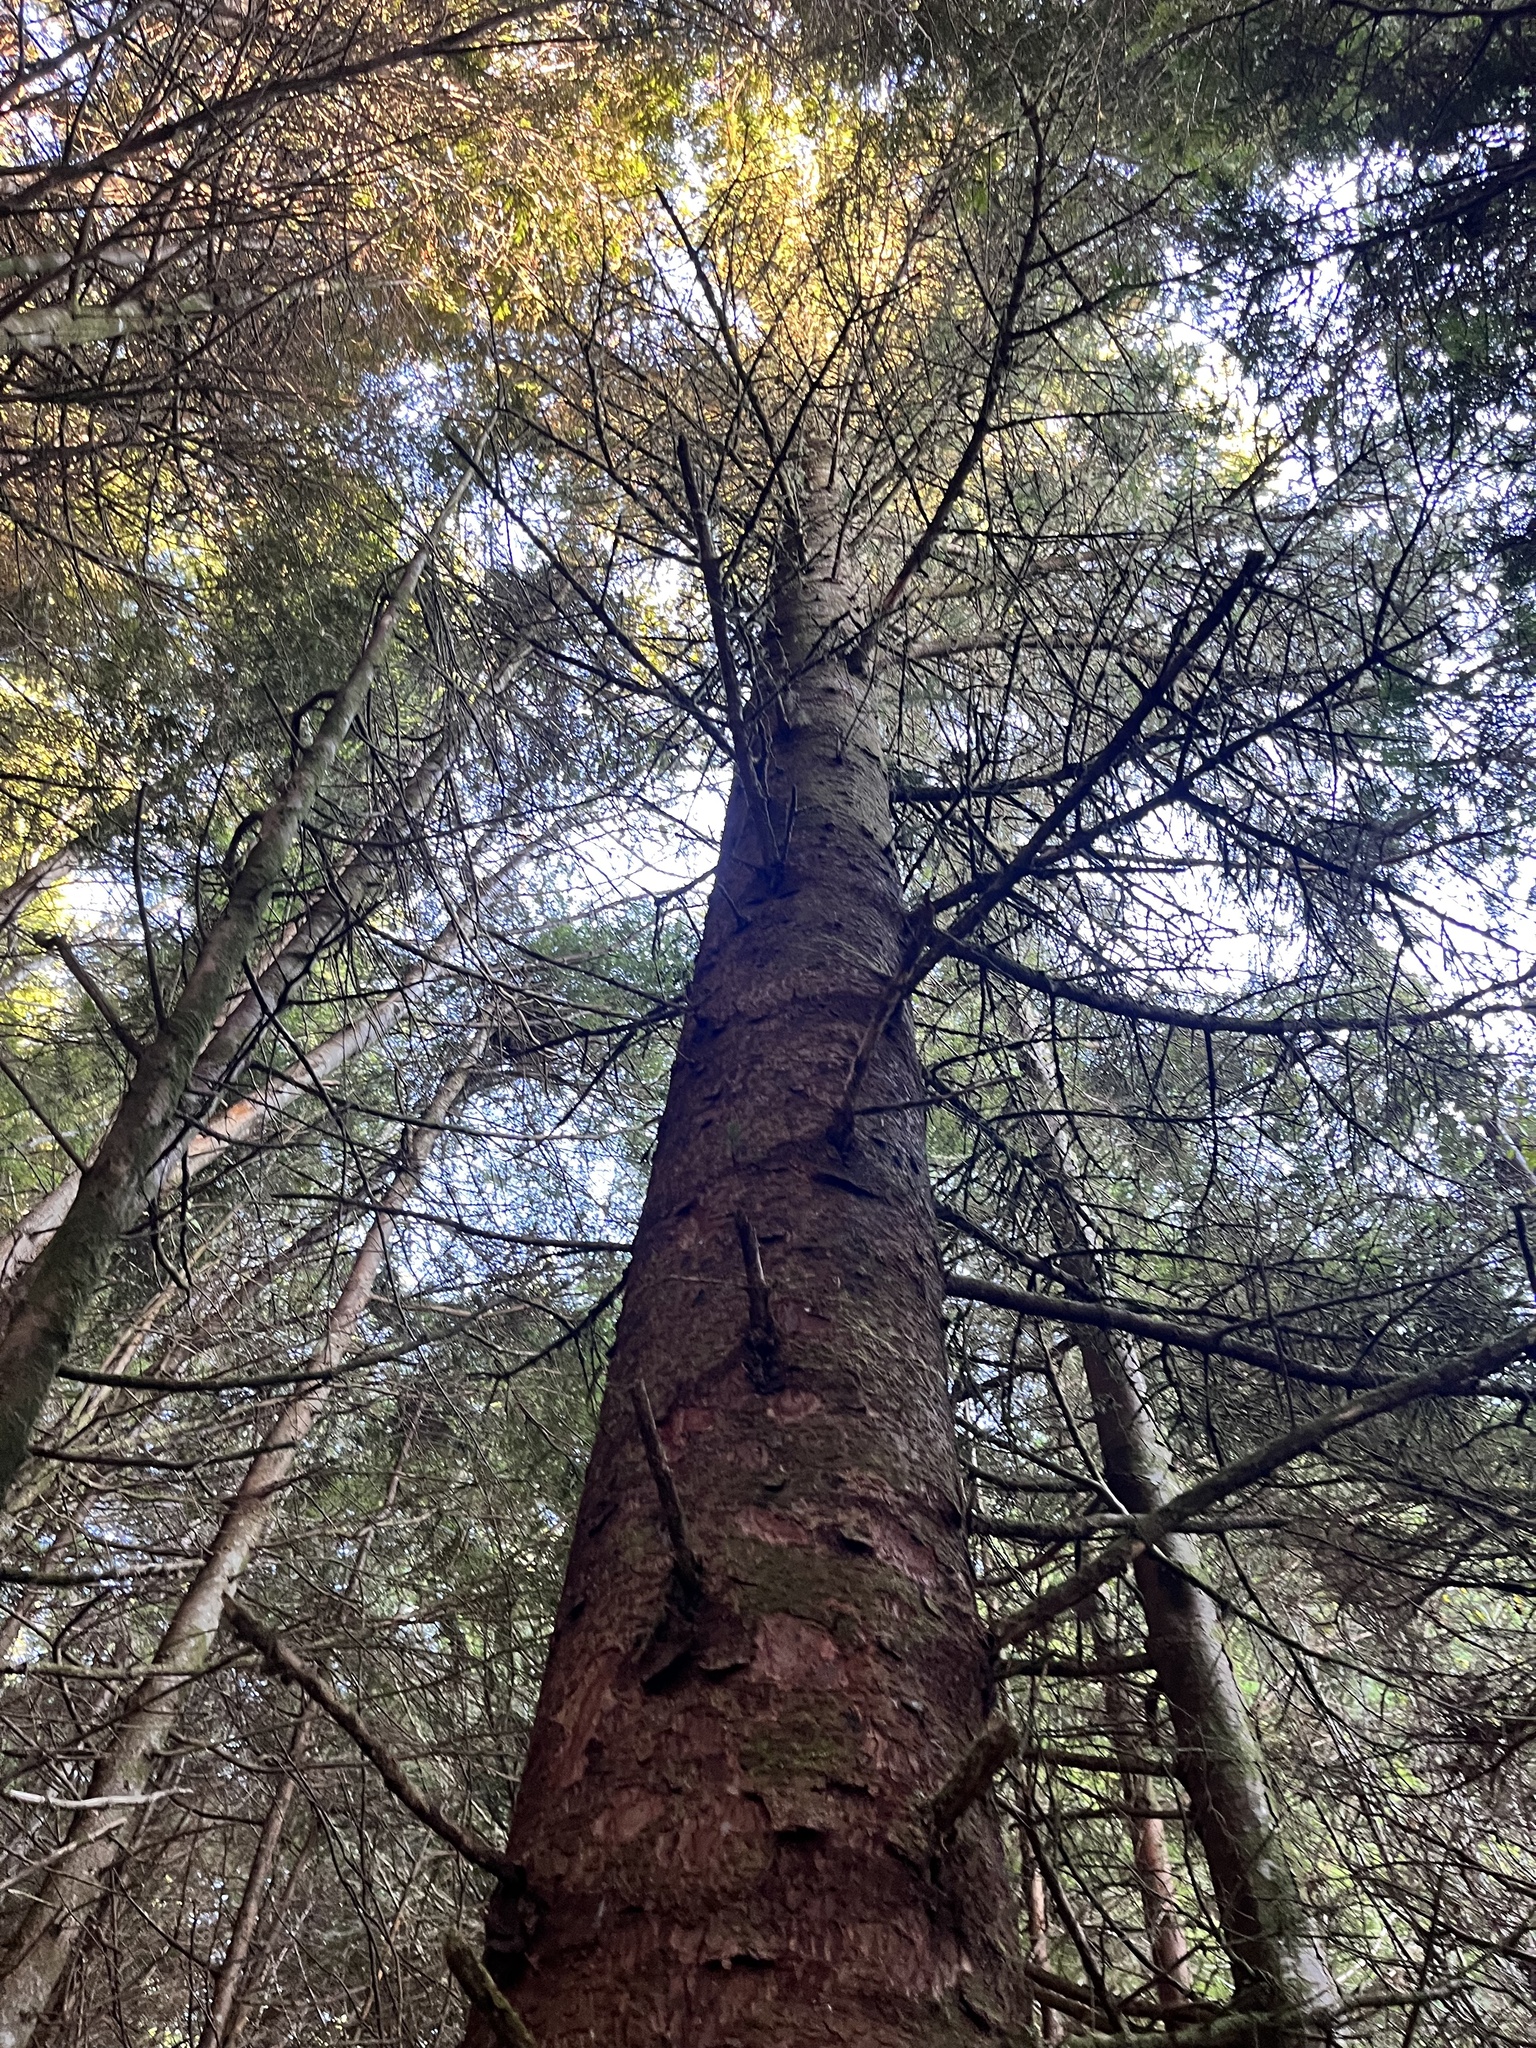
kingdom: Plantae
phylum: Tracheophyta
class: Pinopsida
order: Pinales
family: Pinaceae
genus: Picea
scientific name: Picea sitchensis
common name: Sitka spruce
